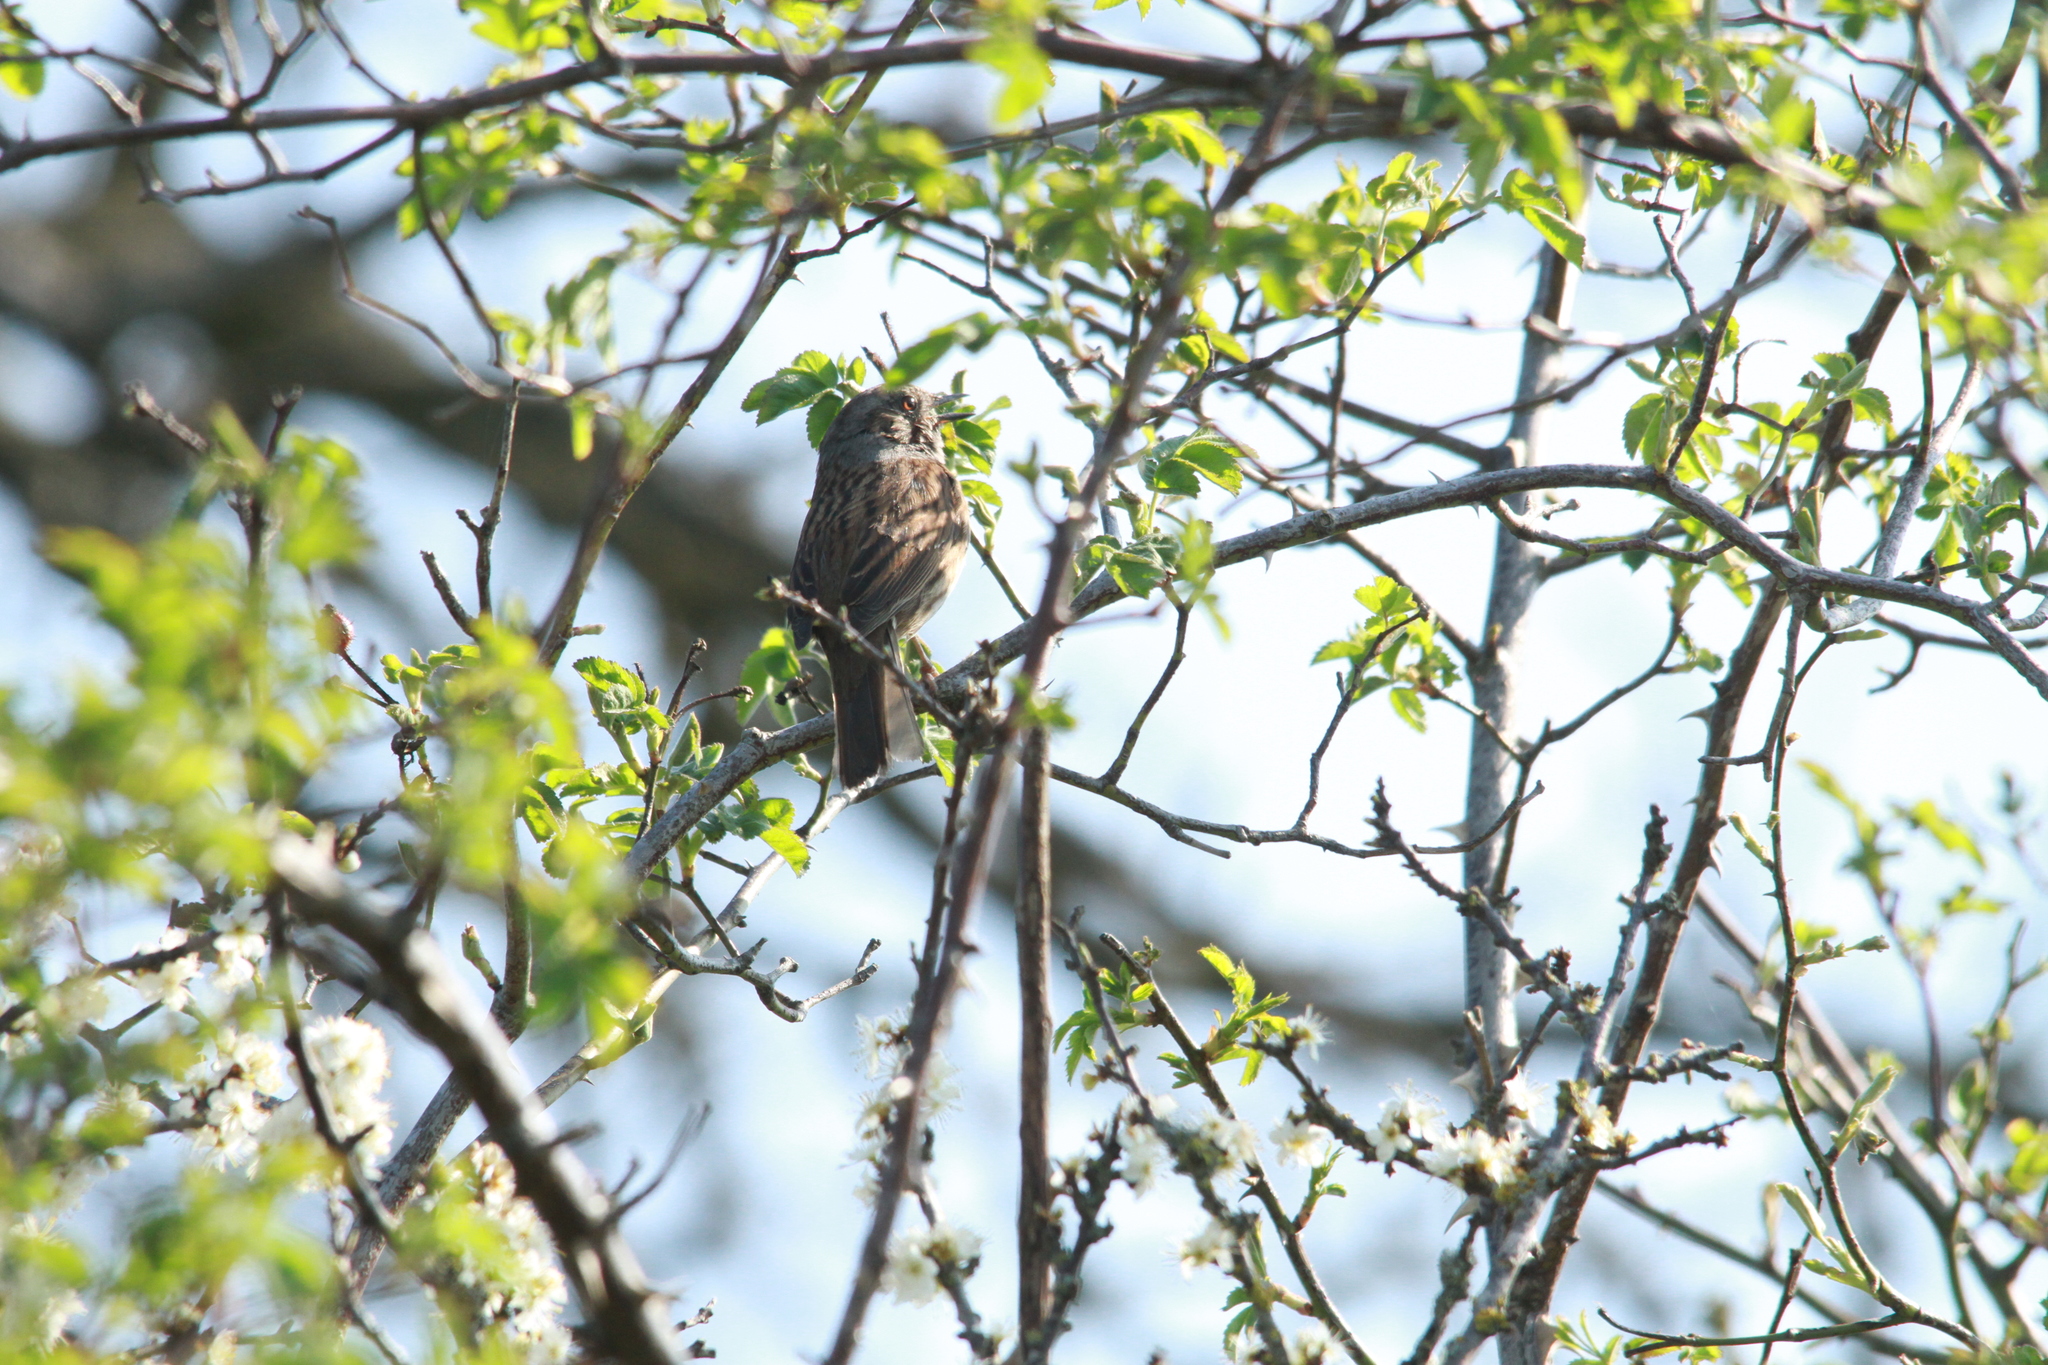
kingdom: Animalia
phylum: Chordata
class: Aves
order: Passeriformes
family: Prunellidae
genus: Prunella
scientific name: Prunella modularis
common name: Dunnock
